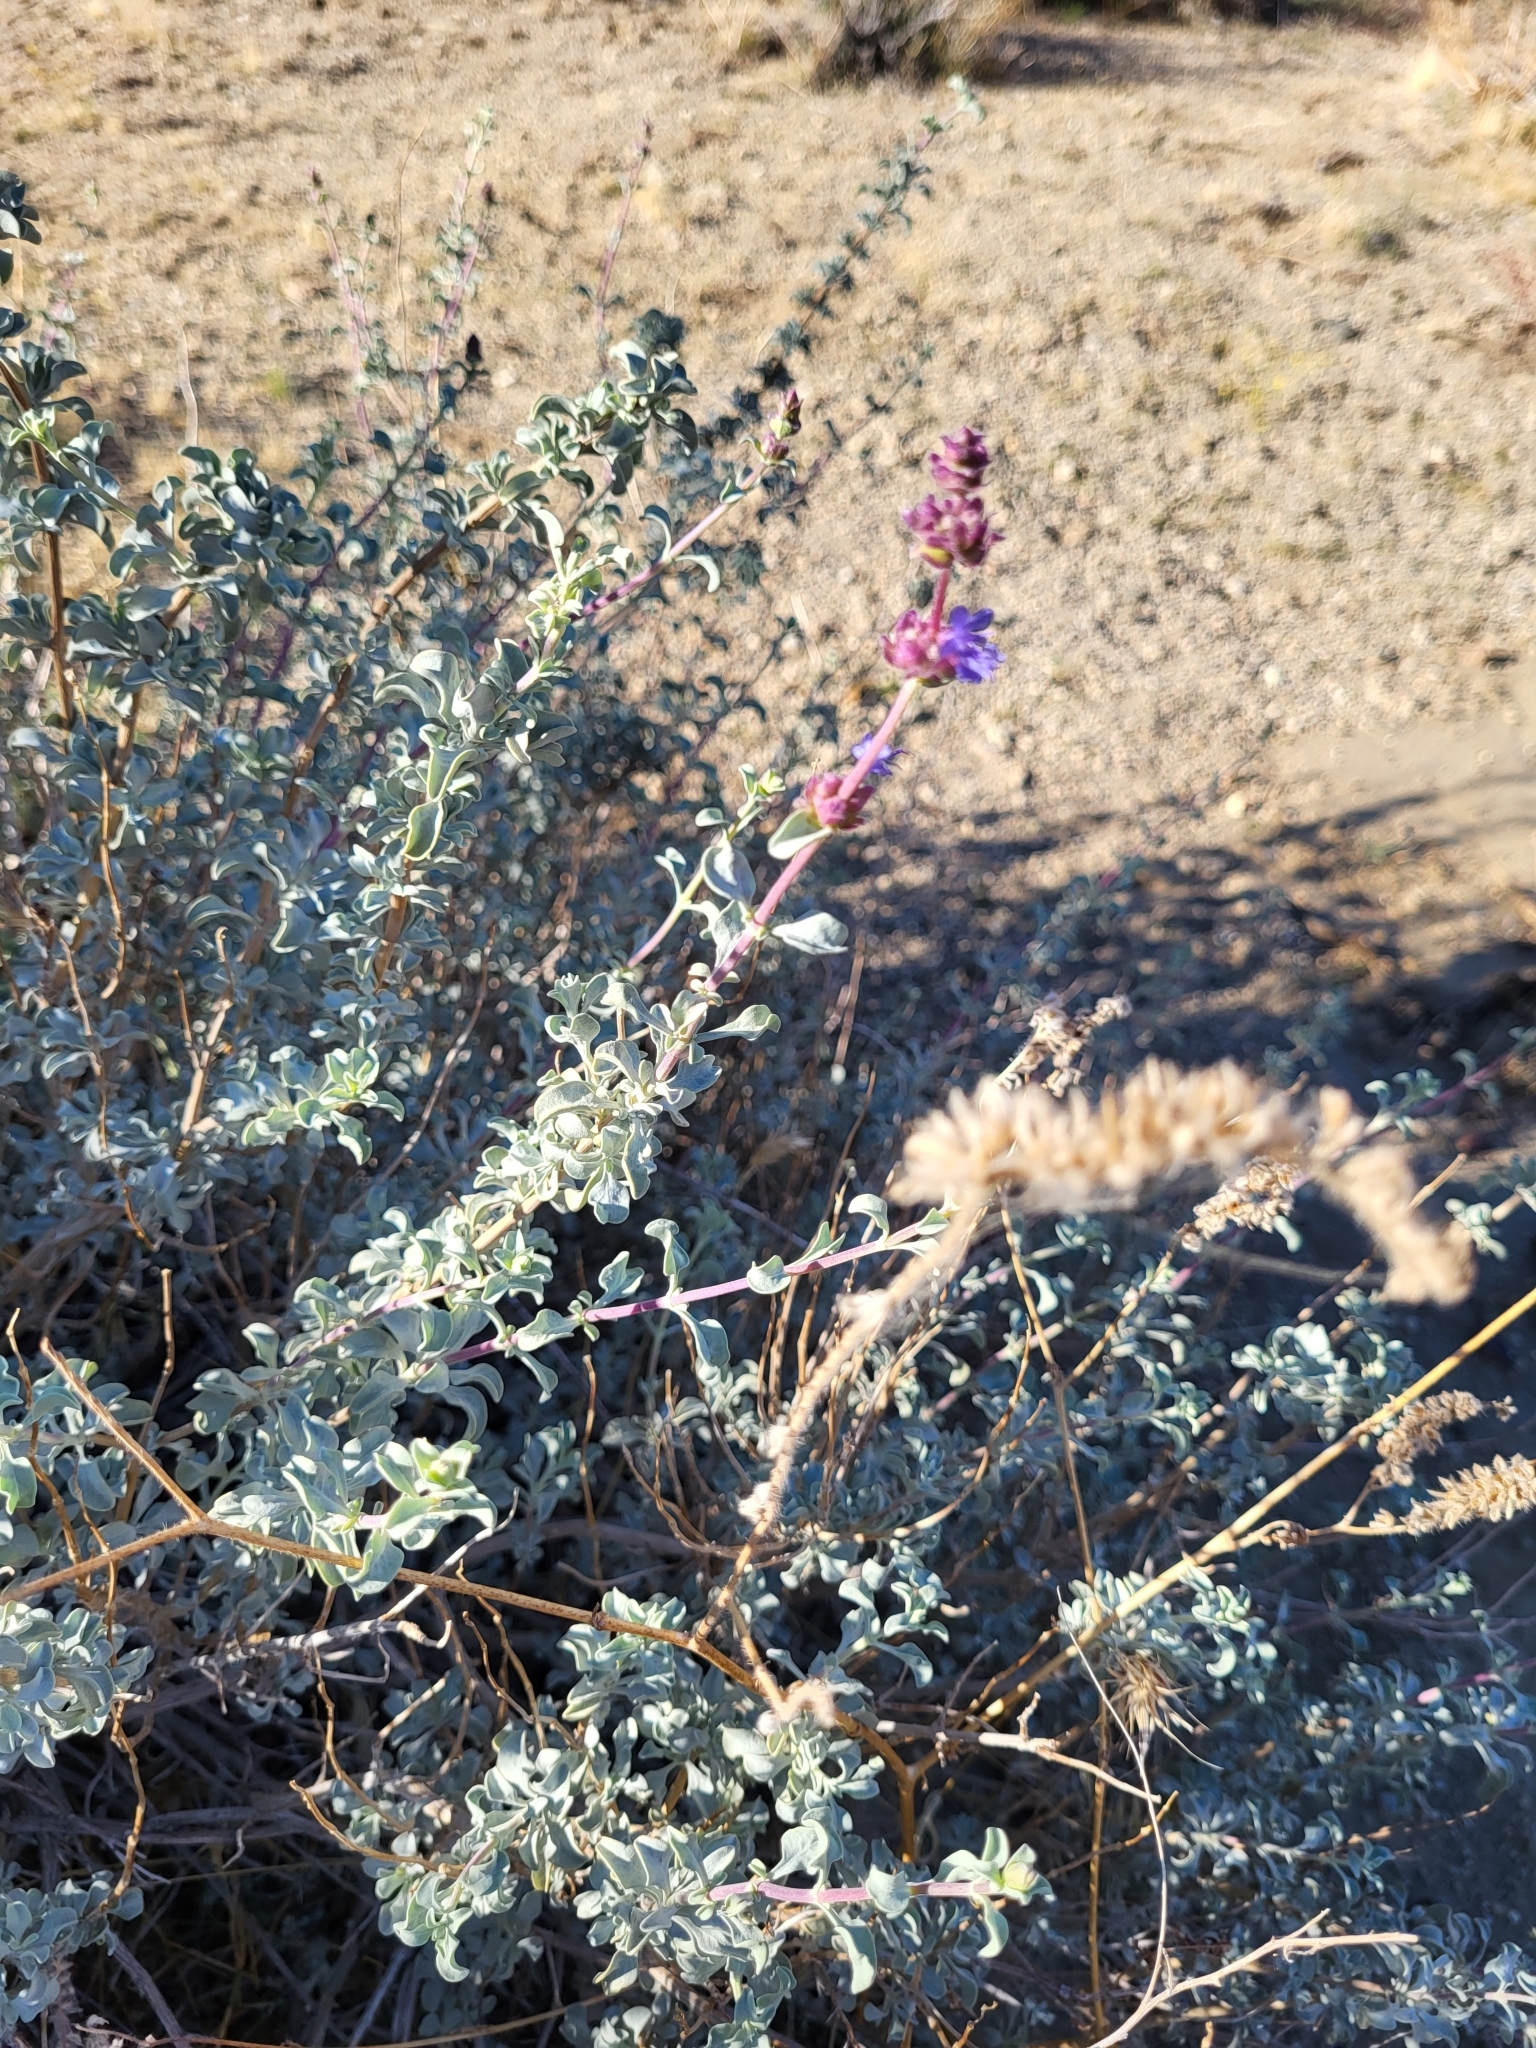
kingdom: Plantae
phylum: Tracheophyta
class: Magnoliopsida
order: Lamiales
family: Lamiaceae
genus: Salvia
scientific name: Salvia dorrii
